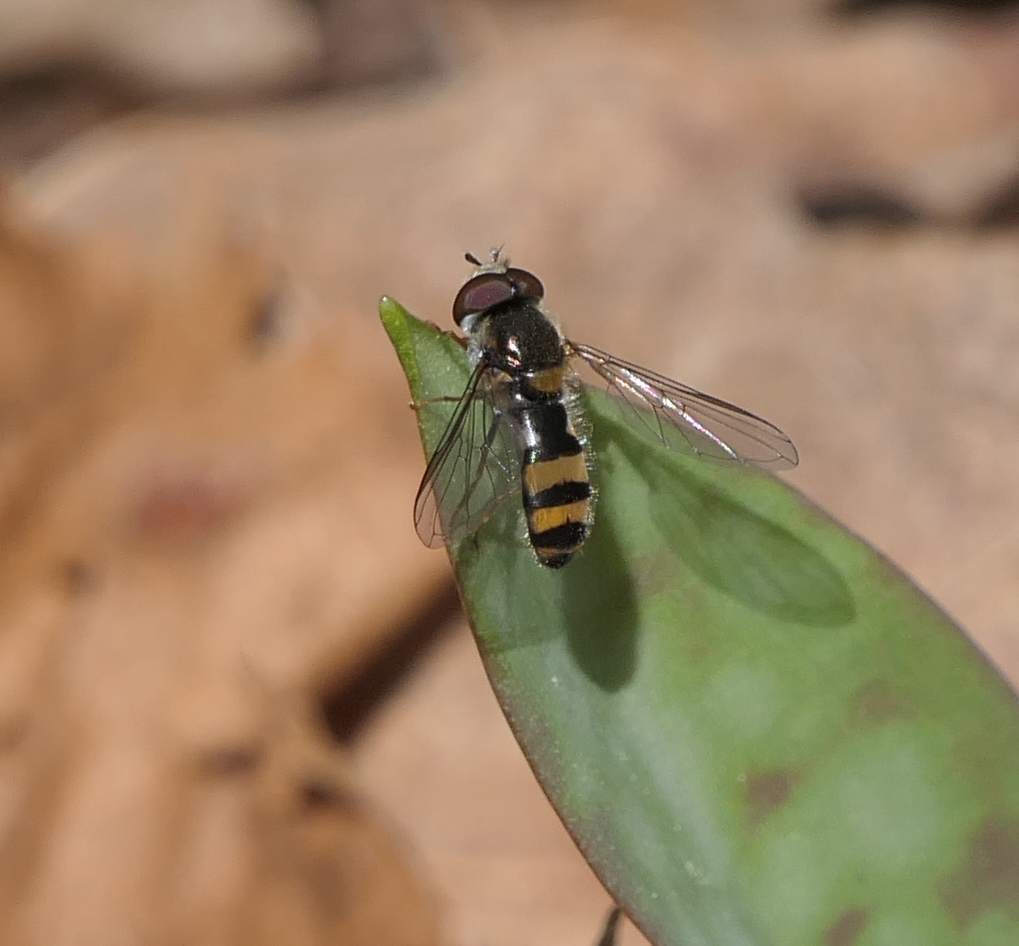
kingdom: Animalia
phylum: Arthropoda
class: Insecta
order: Diptera
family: Syrphidae
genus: Fagisyrphus
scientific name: Fagisyrphus cincta
